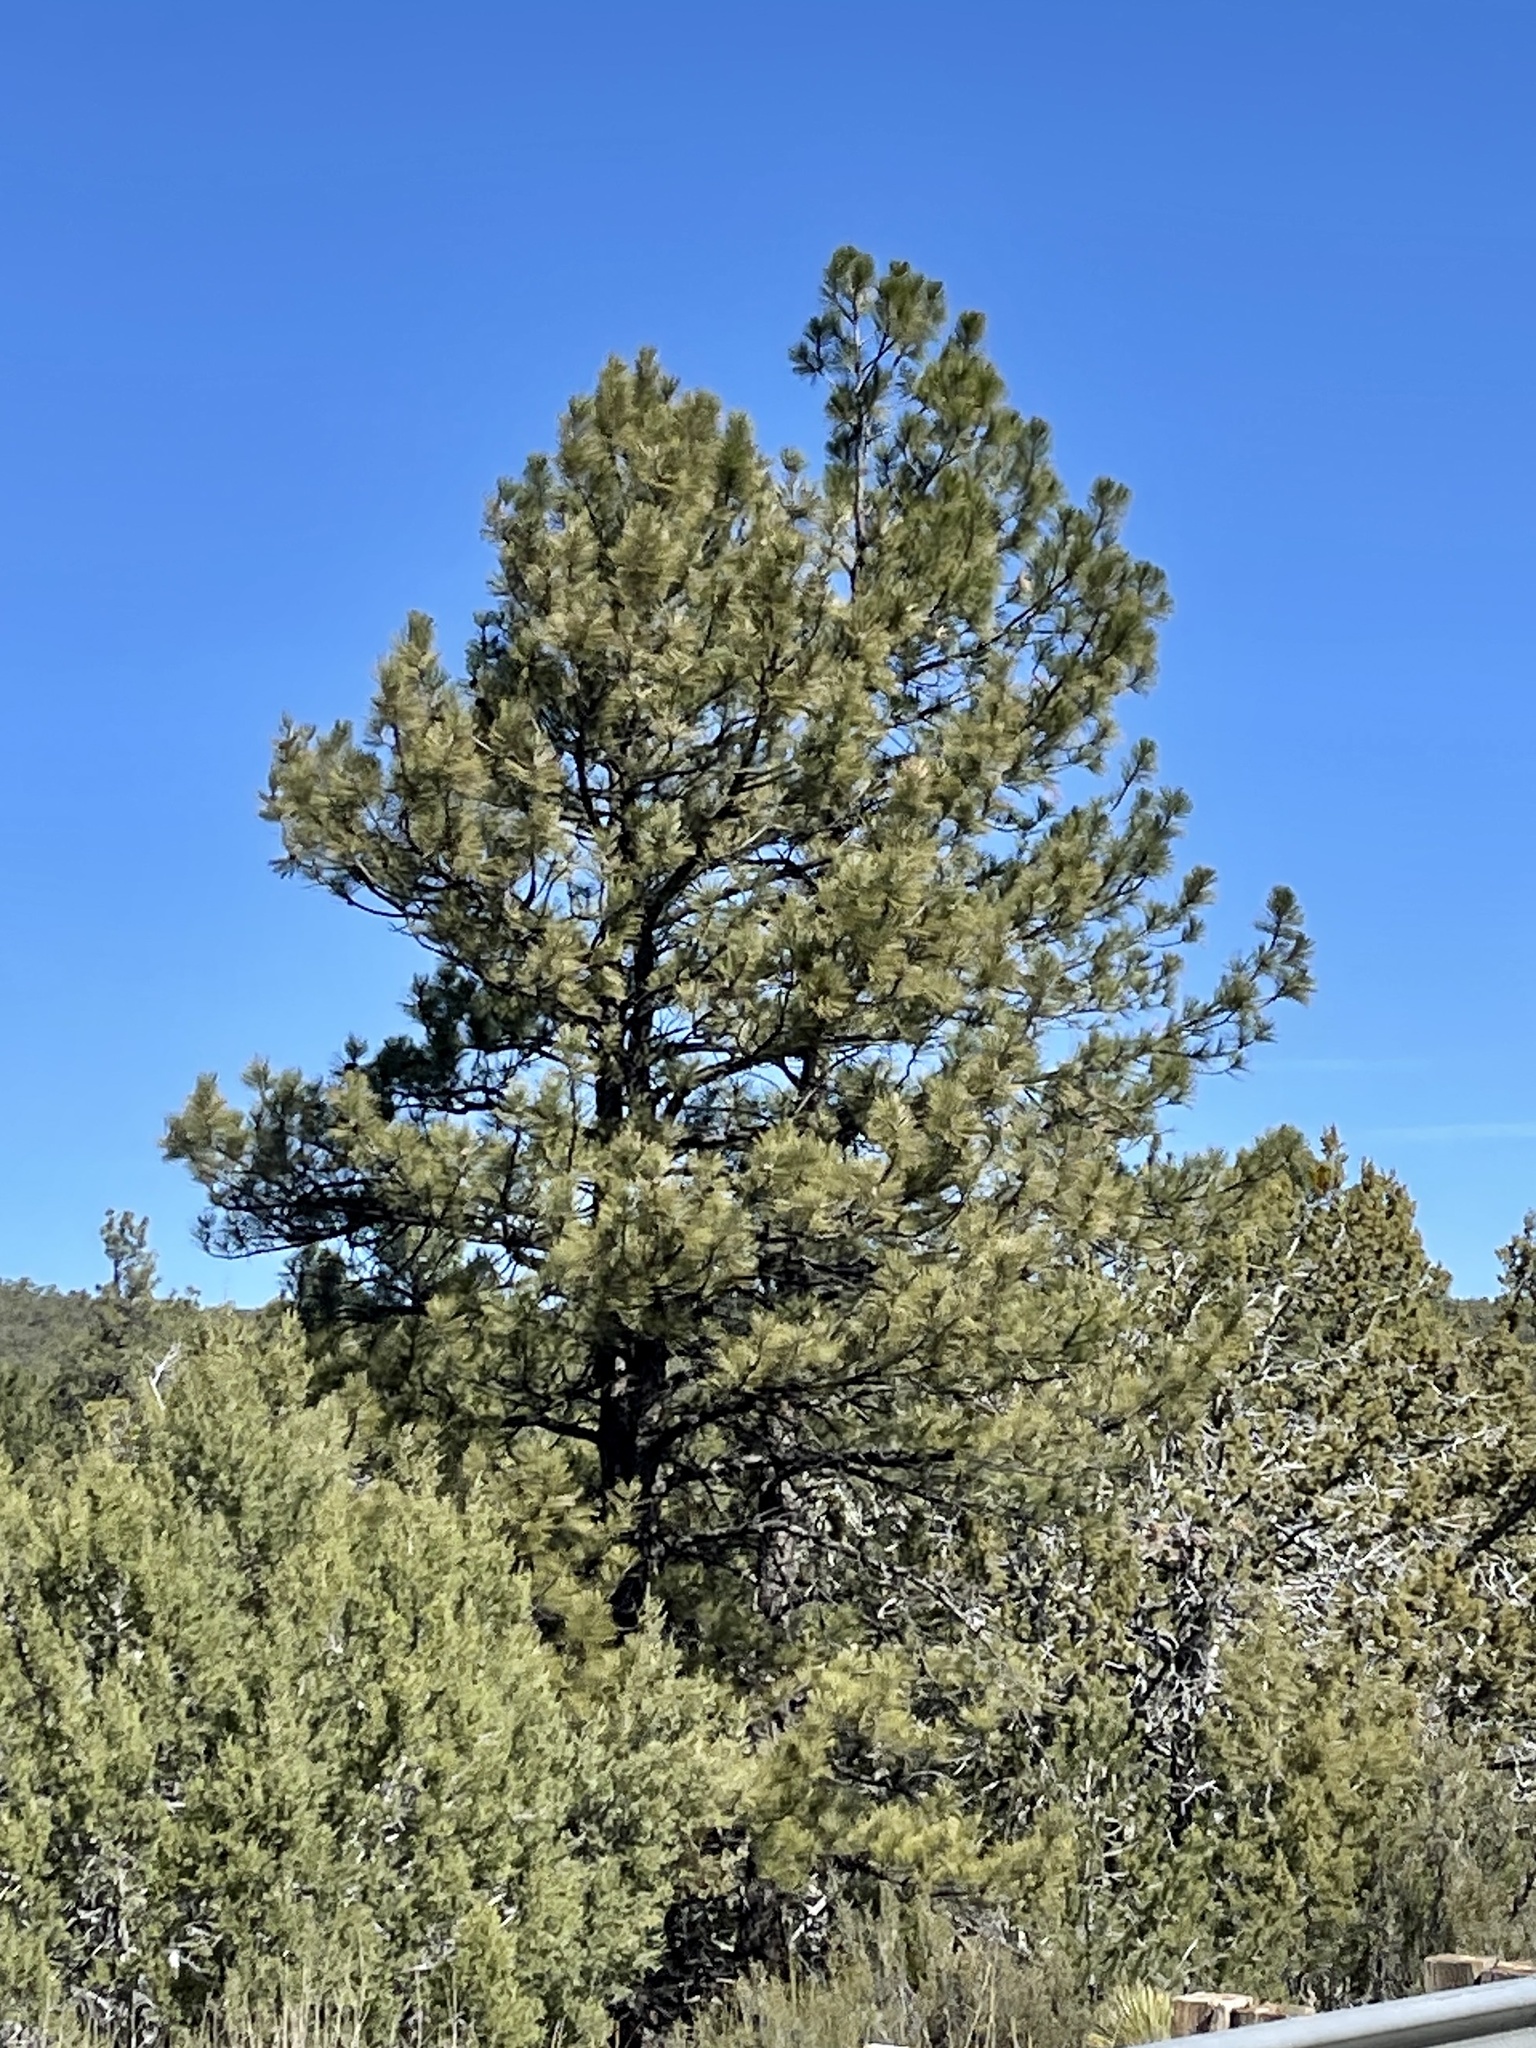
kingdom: Plantae
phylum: Tracheophyta
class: Pinopsida
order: Pinales
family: Pinaceae
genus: Pinus
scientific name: Pinus ponderosa
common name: Western yellow-pine
